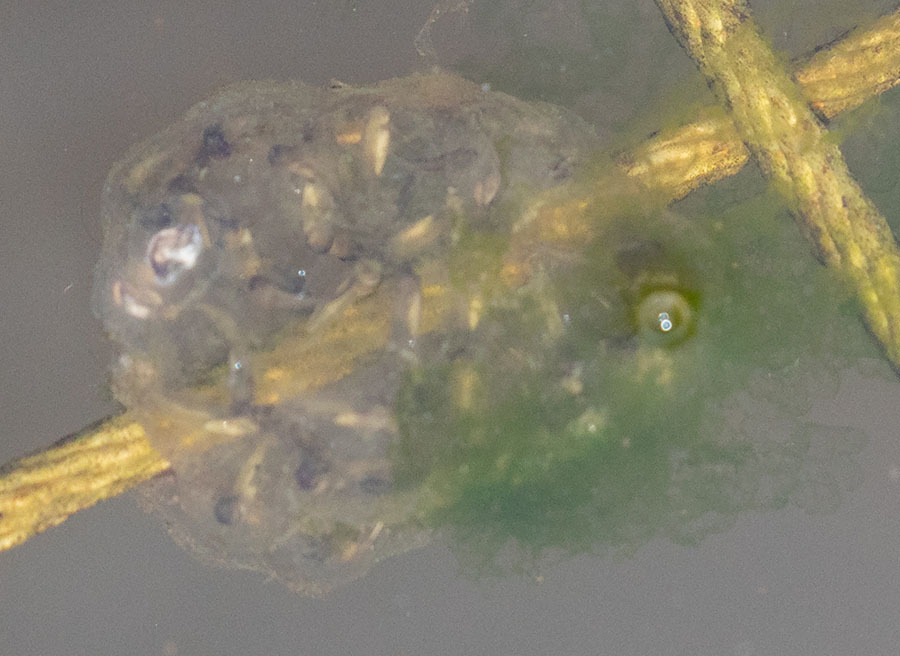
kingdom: Animalia
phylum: Chordata
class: Amphibia
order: Anura
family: Hylidae
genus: Pseudacris
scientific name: Pseudacris regilla
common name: Pacific chorus frog
